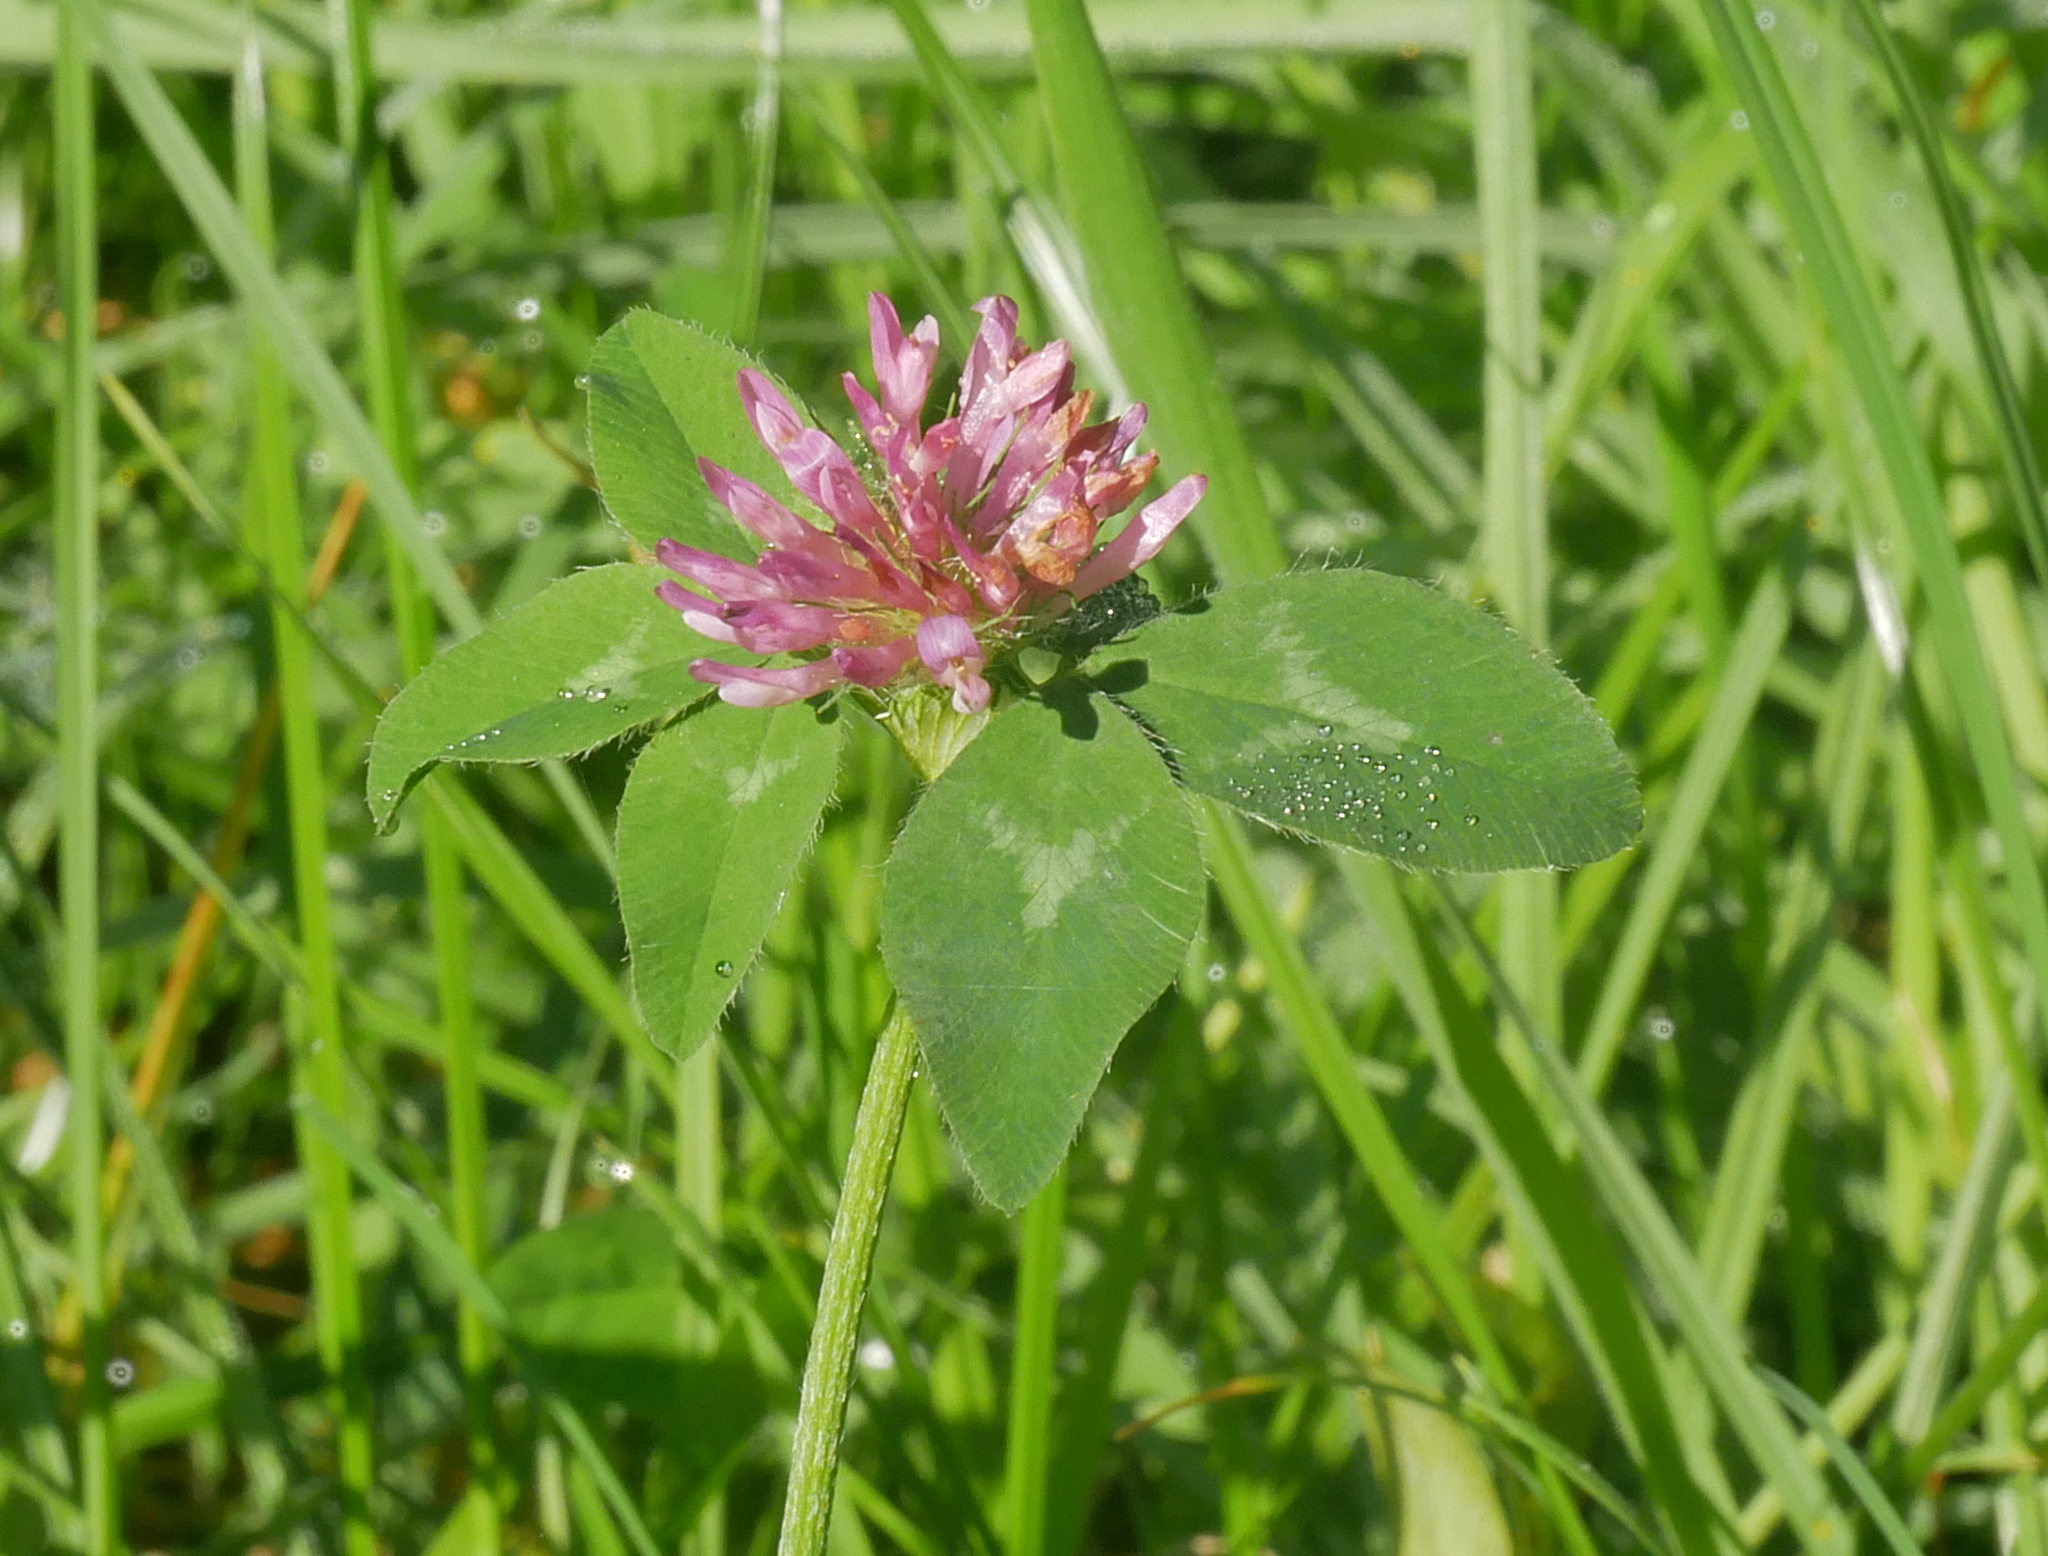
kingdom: Plantae
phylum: Tracheophyta
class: Magnoliopsida
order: Fabales
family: Fabaceae
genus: Trifolium
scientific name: Trifolium pratense
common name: Red clover
